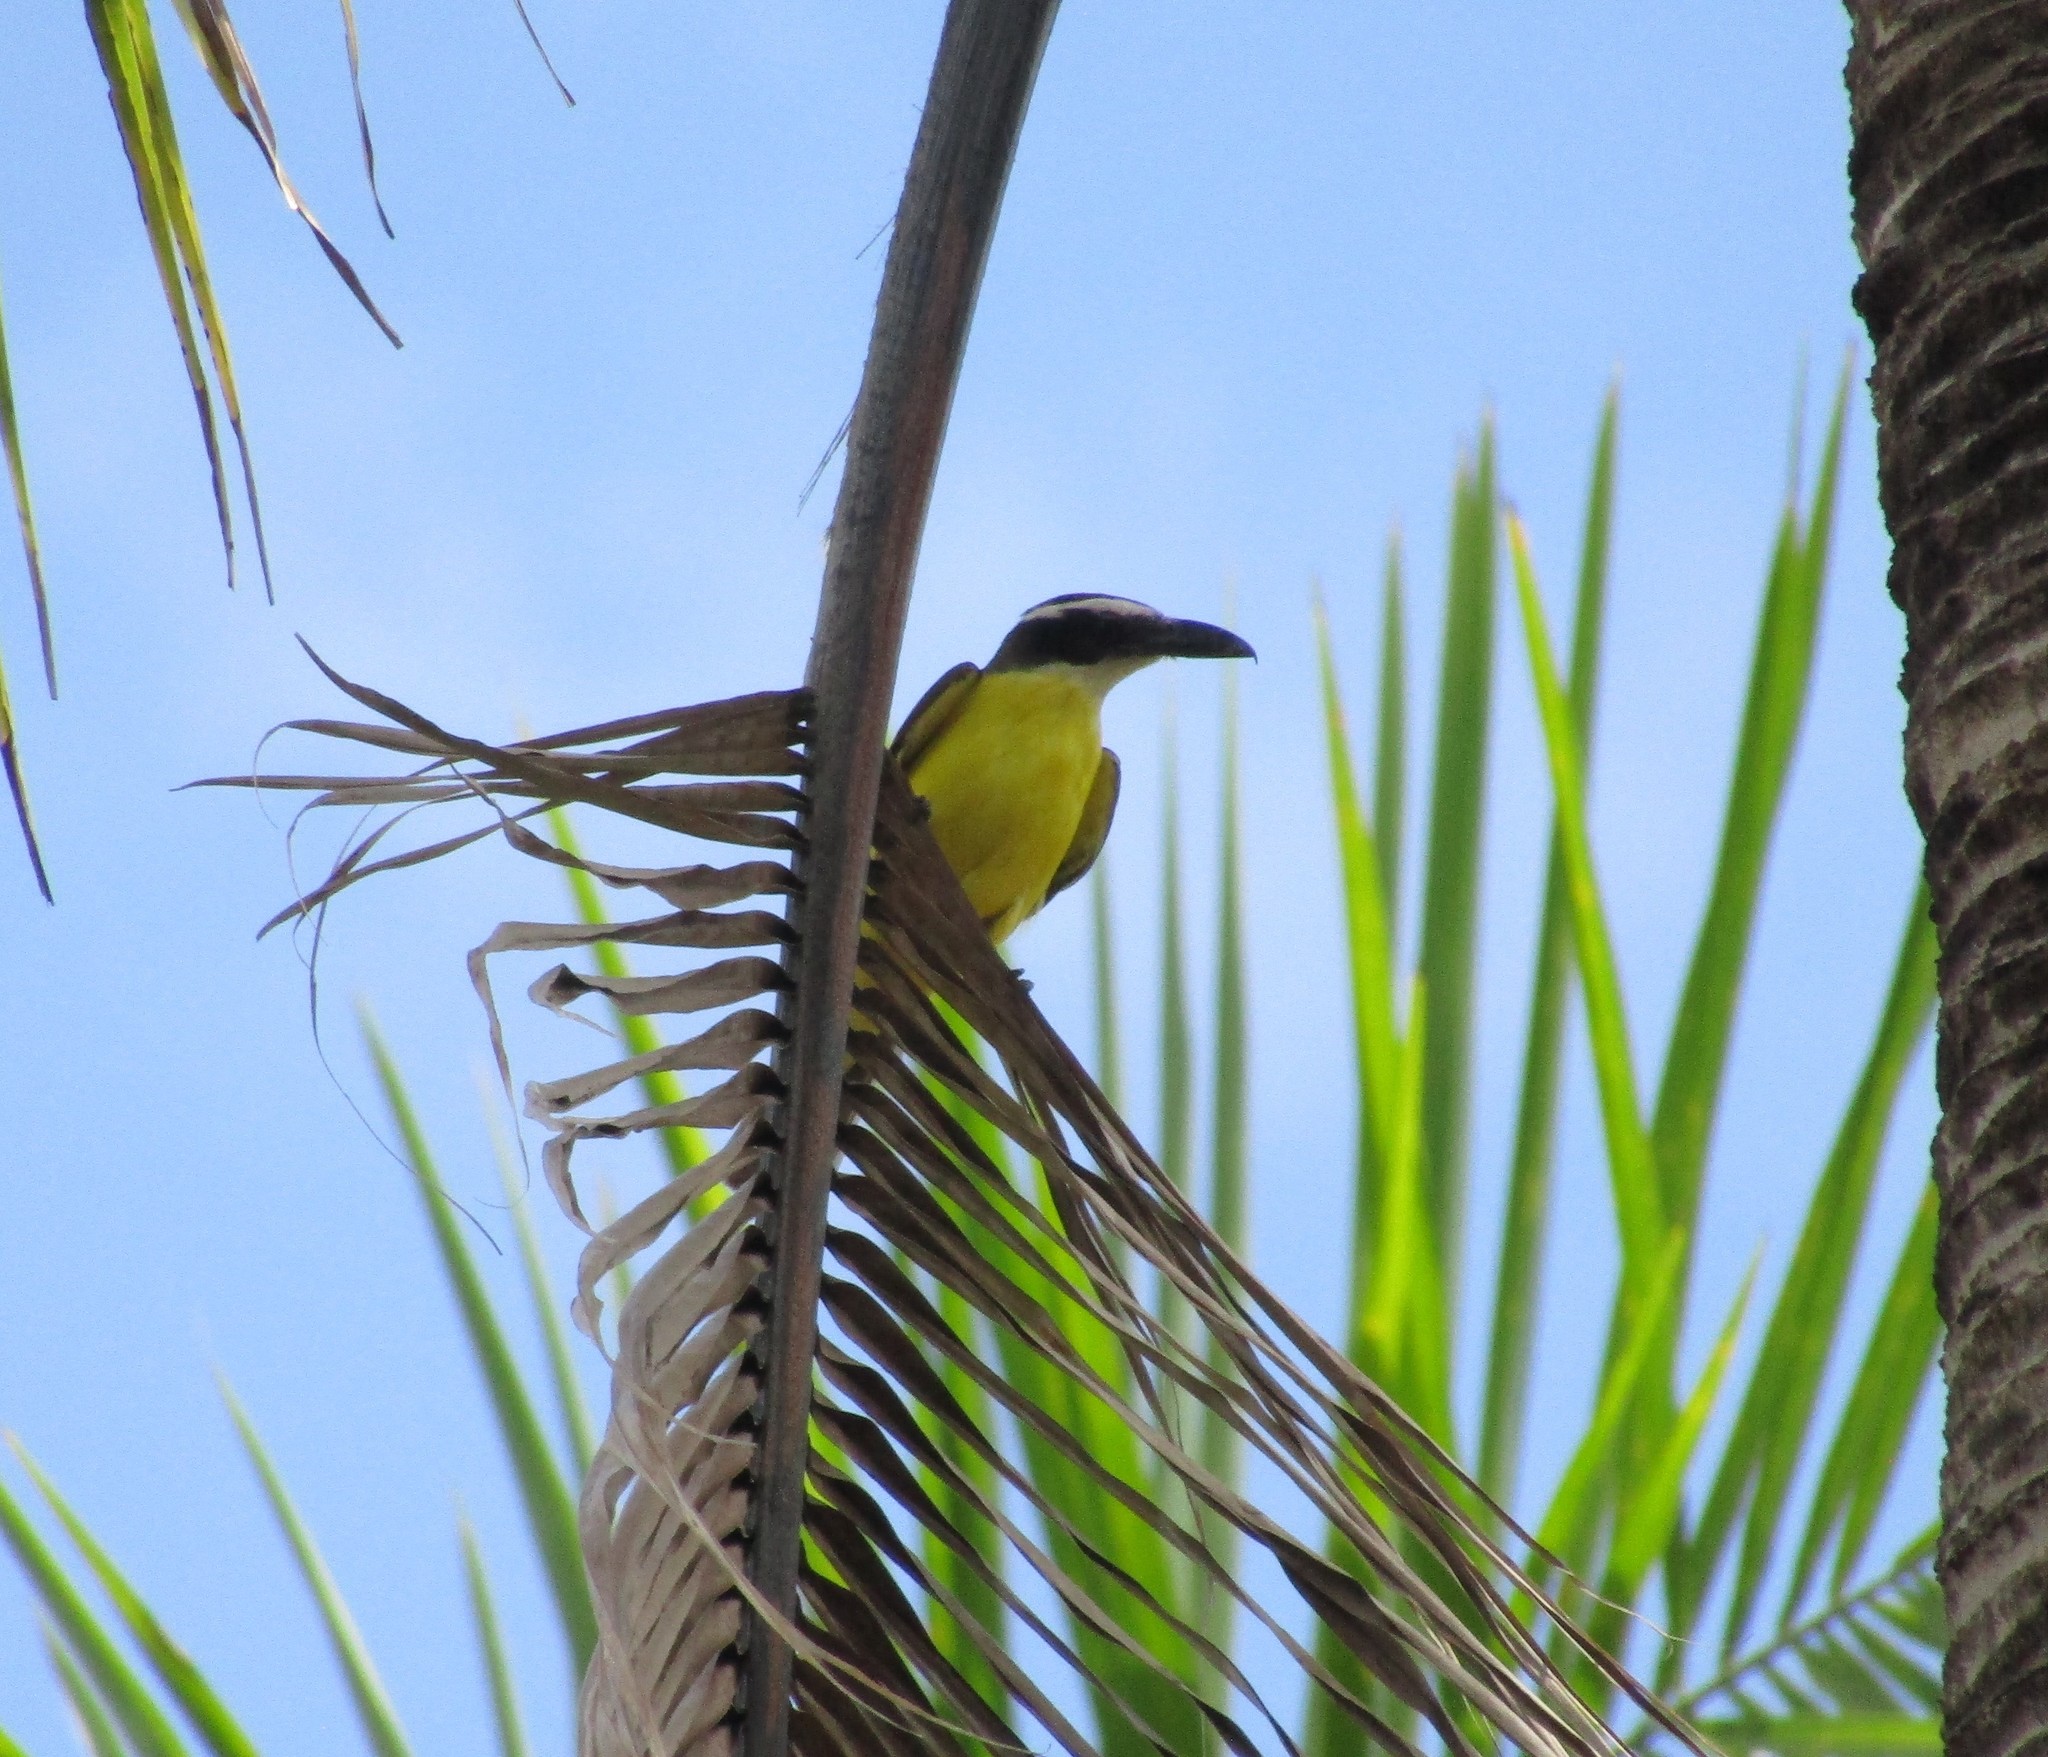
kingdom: Animalia
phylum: Chordata
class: Aves
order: Passeriformes
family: Tyrannidae
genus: Megarynchus
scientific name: Megarynchus pitangua
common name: Boat-billed flycatcher
